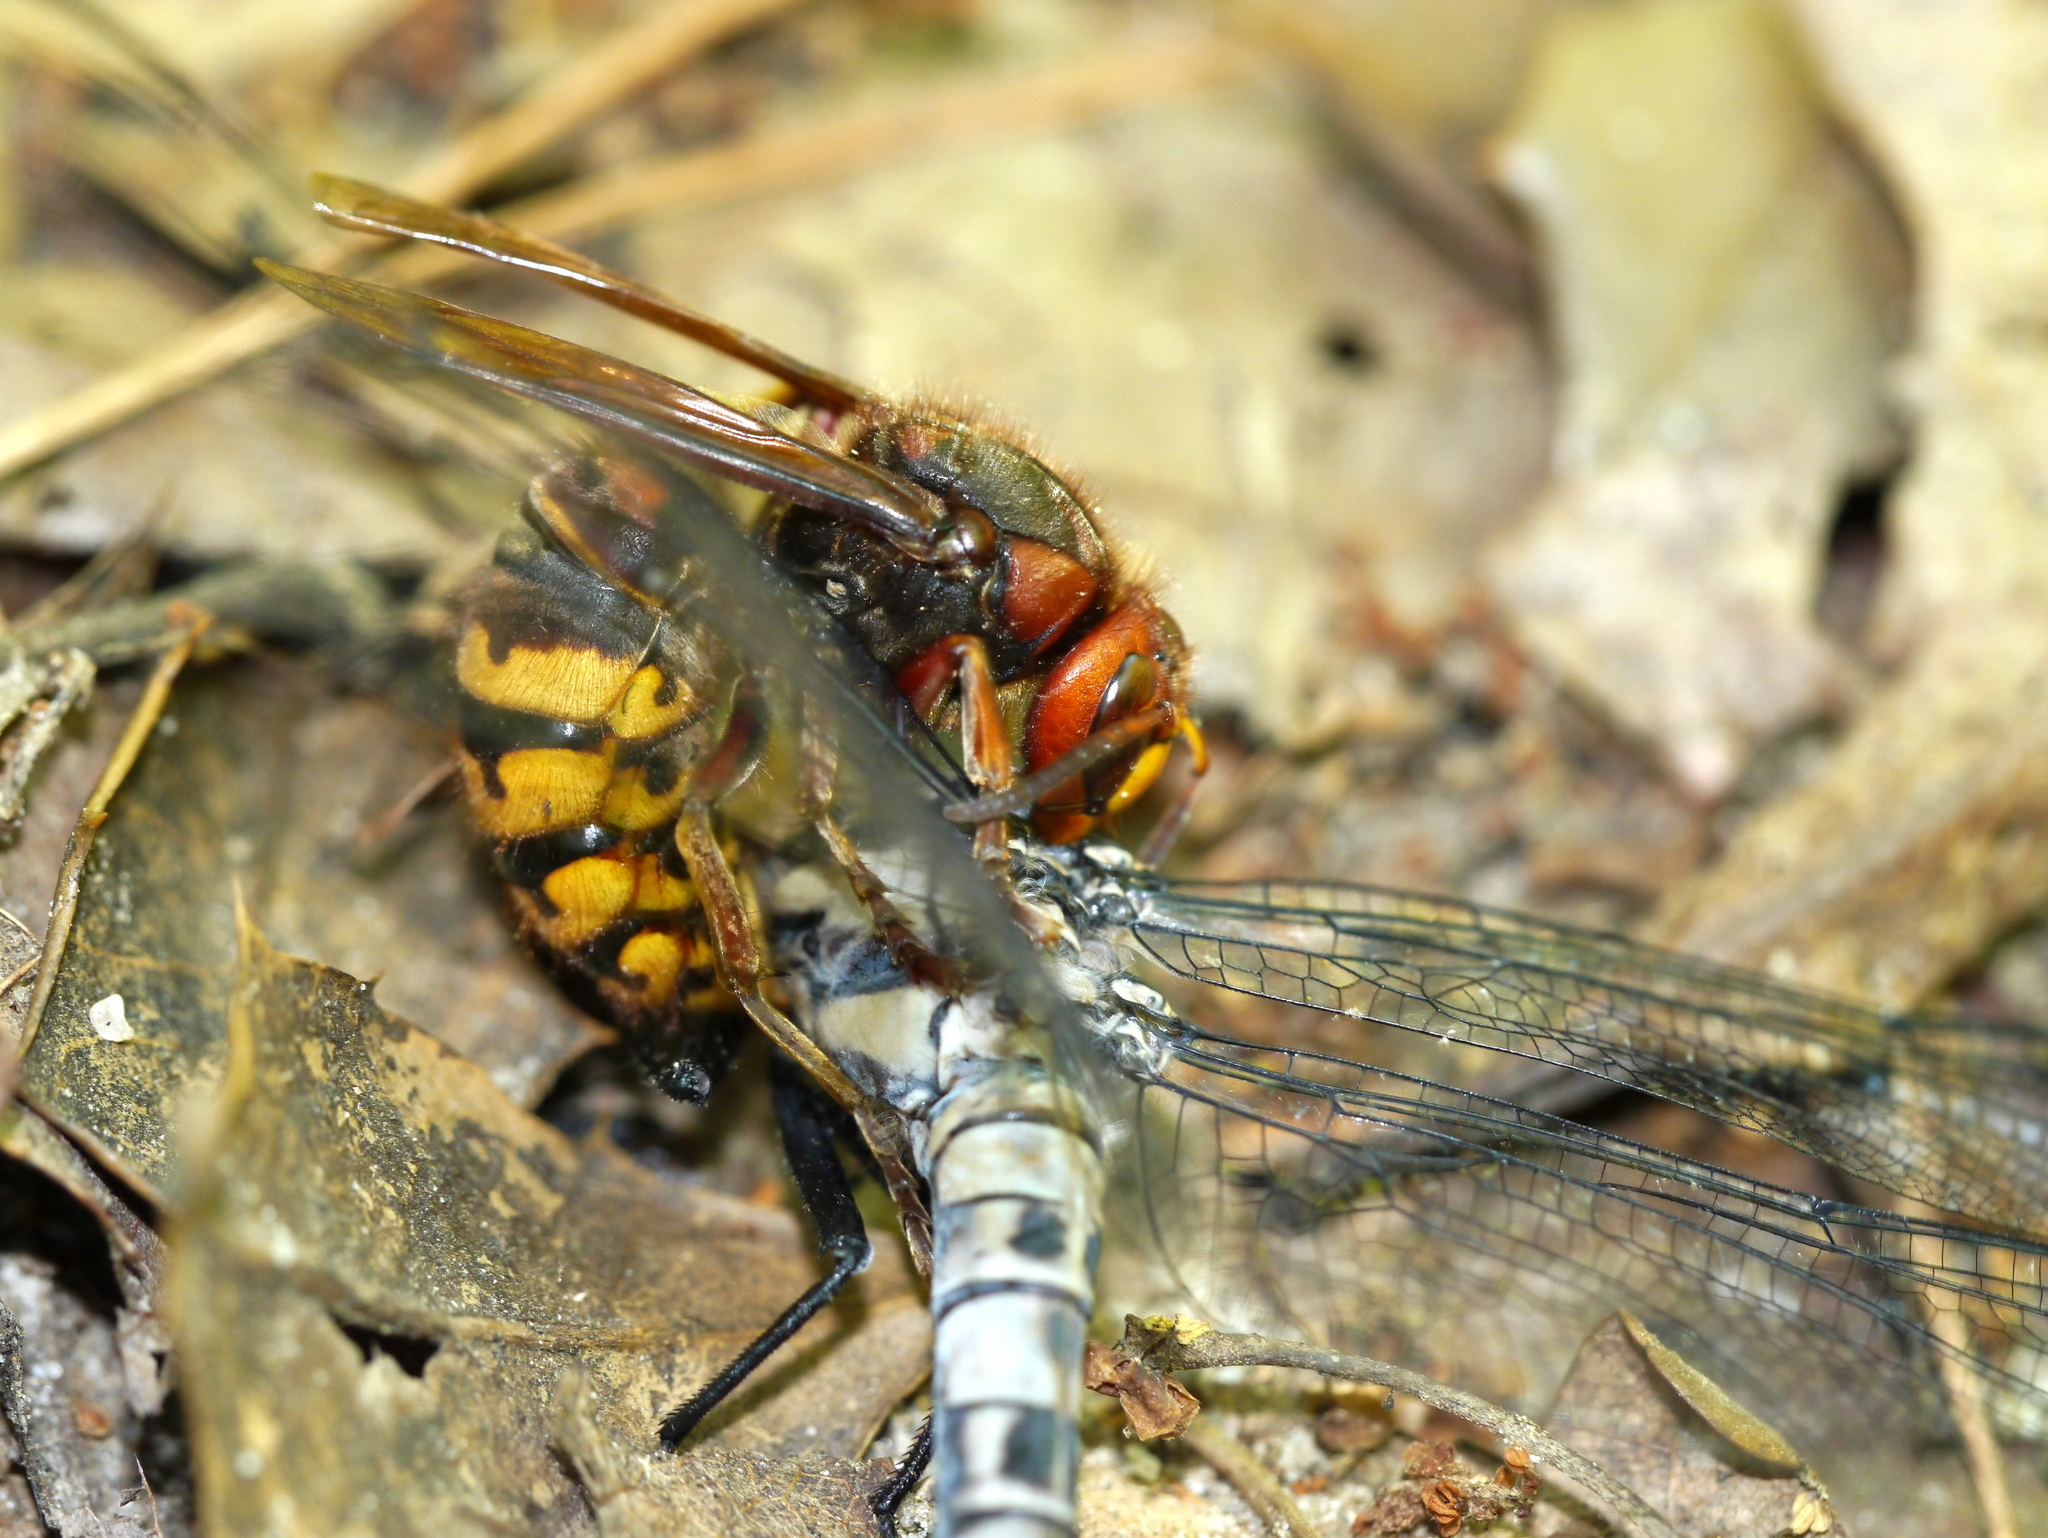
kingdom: Animalia
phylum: Arthropoda
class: Insecta
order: Hymenoptera
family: Vespidae
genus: Vespa
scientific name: Vespa crabro
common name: Hornet
